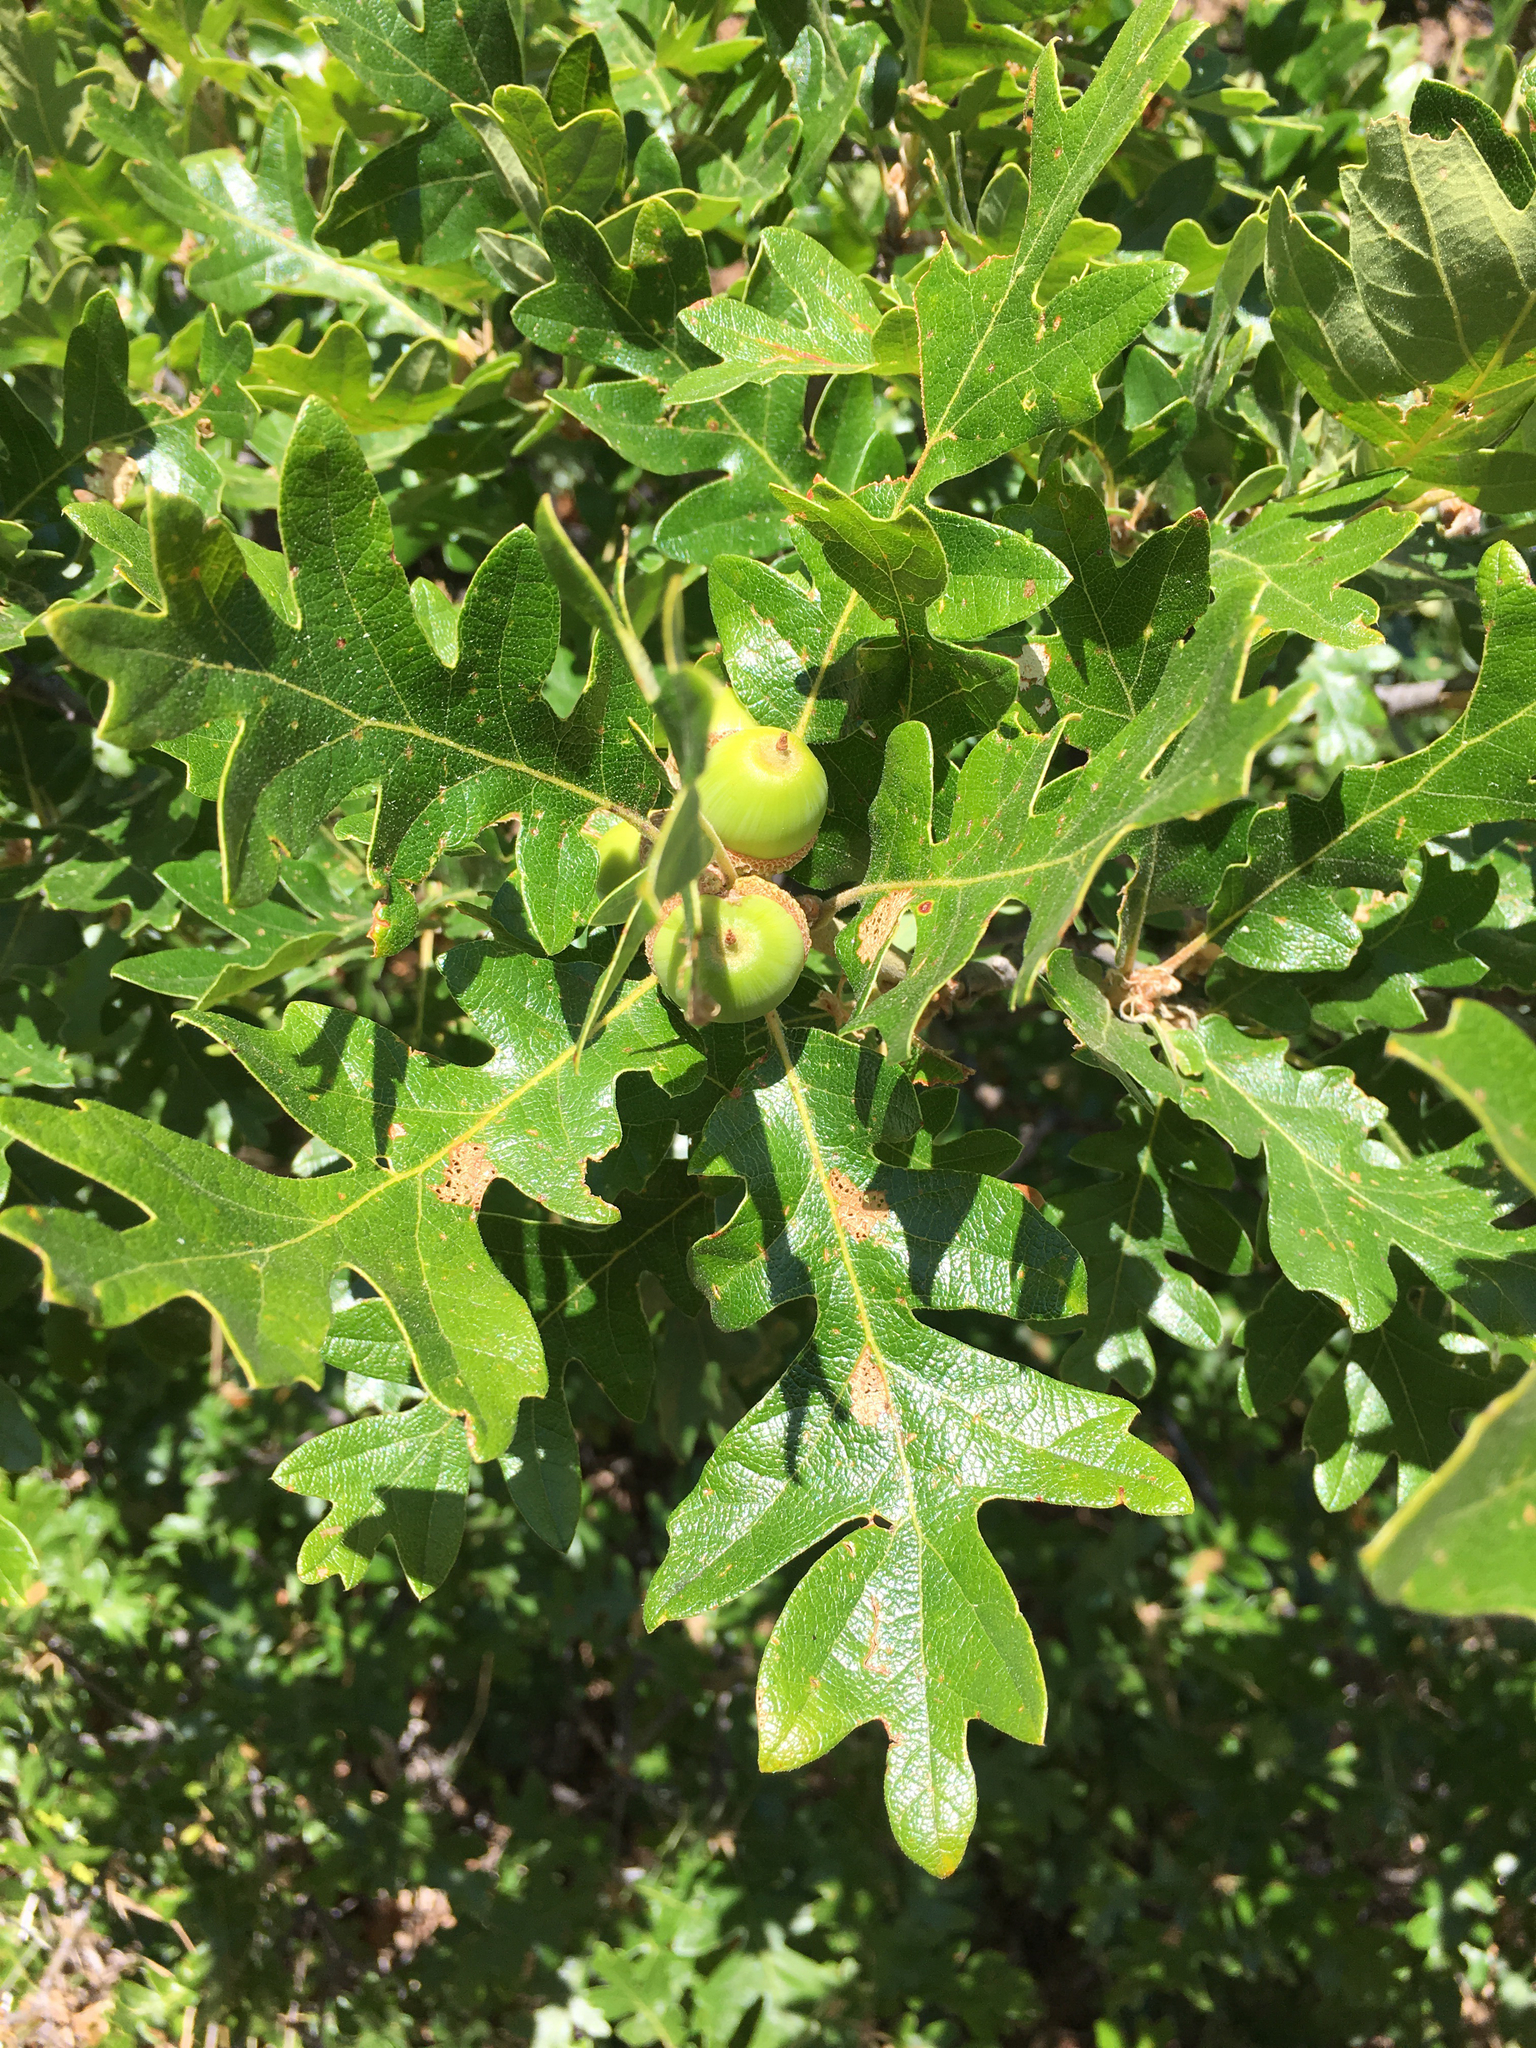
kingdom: Plantae
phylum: Tracheophyta
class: Magnoliopsida
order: Fagales
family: Fagaceae
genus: Quercus
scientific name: Quercus garryana
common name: Garry oak
